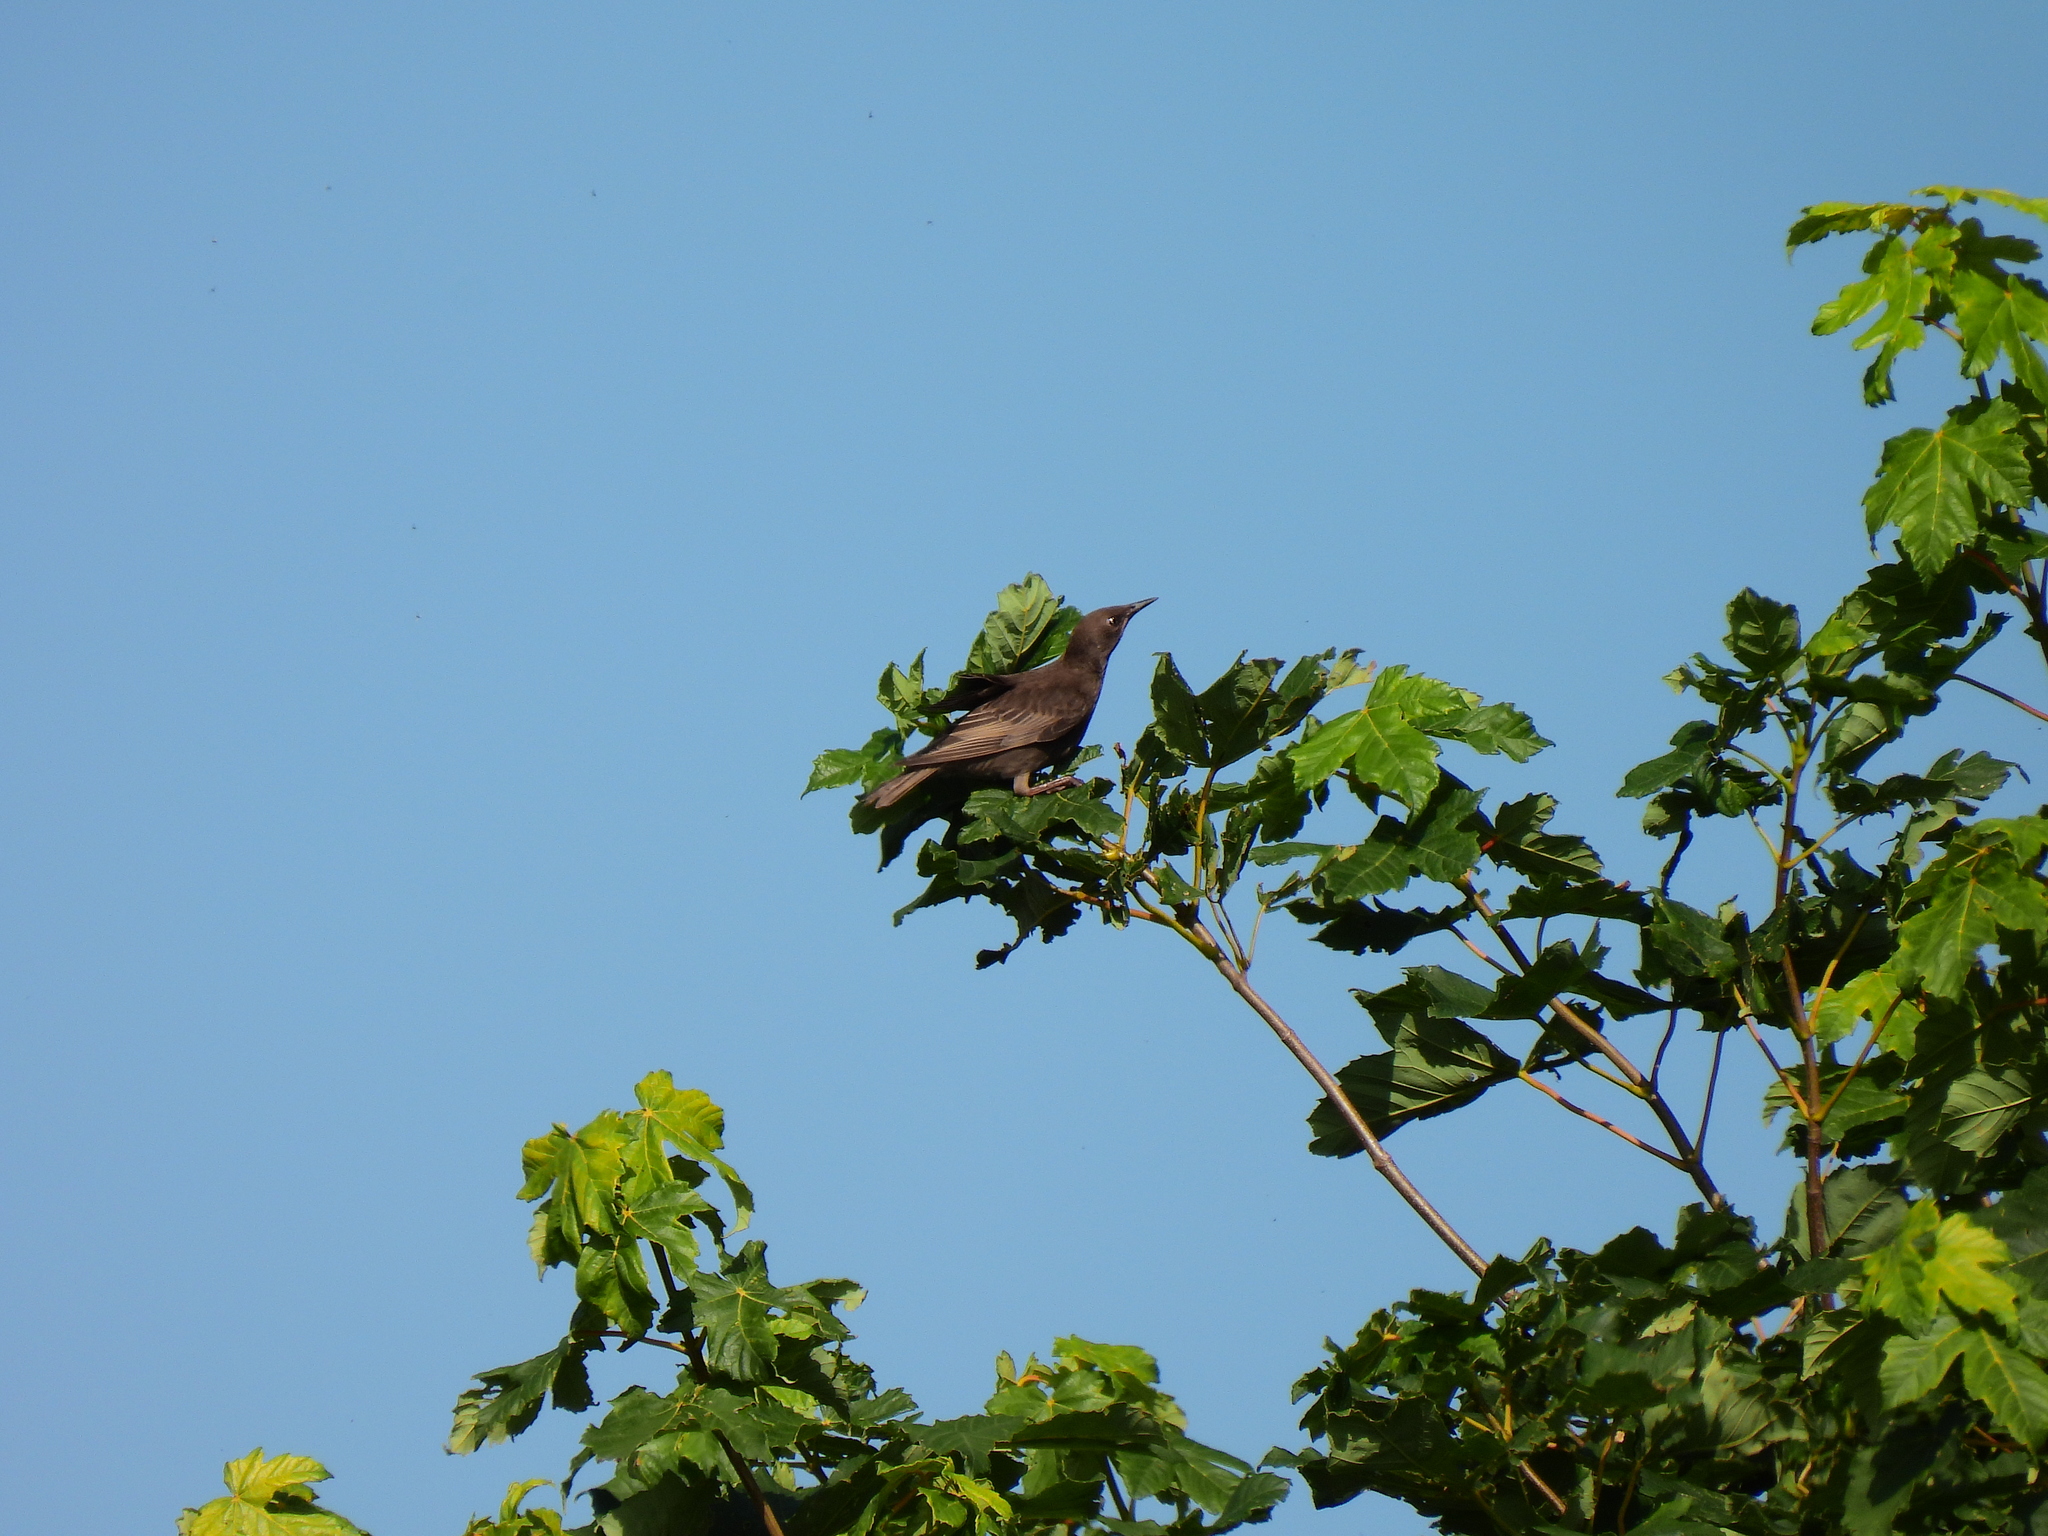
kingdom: Animalia
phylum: Chordata
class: Aves
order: Passeriformes
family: Sturnidae
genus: Sturnus
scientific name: Sturnus vulgaris
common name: Common starling
